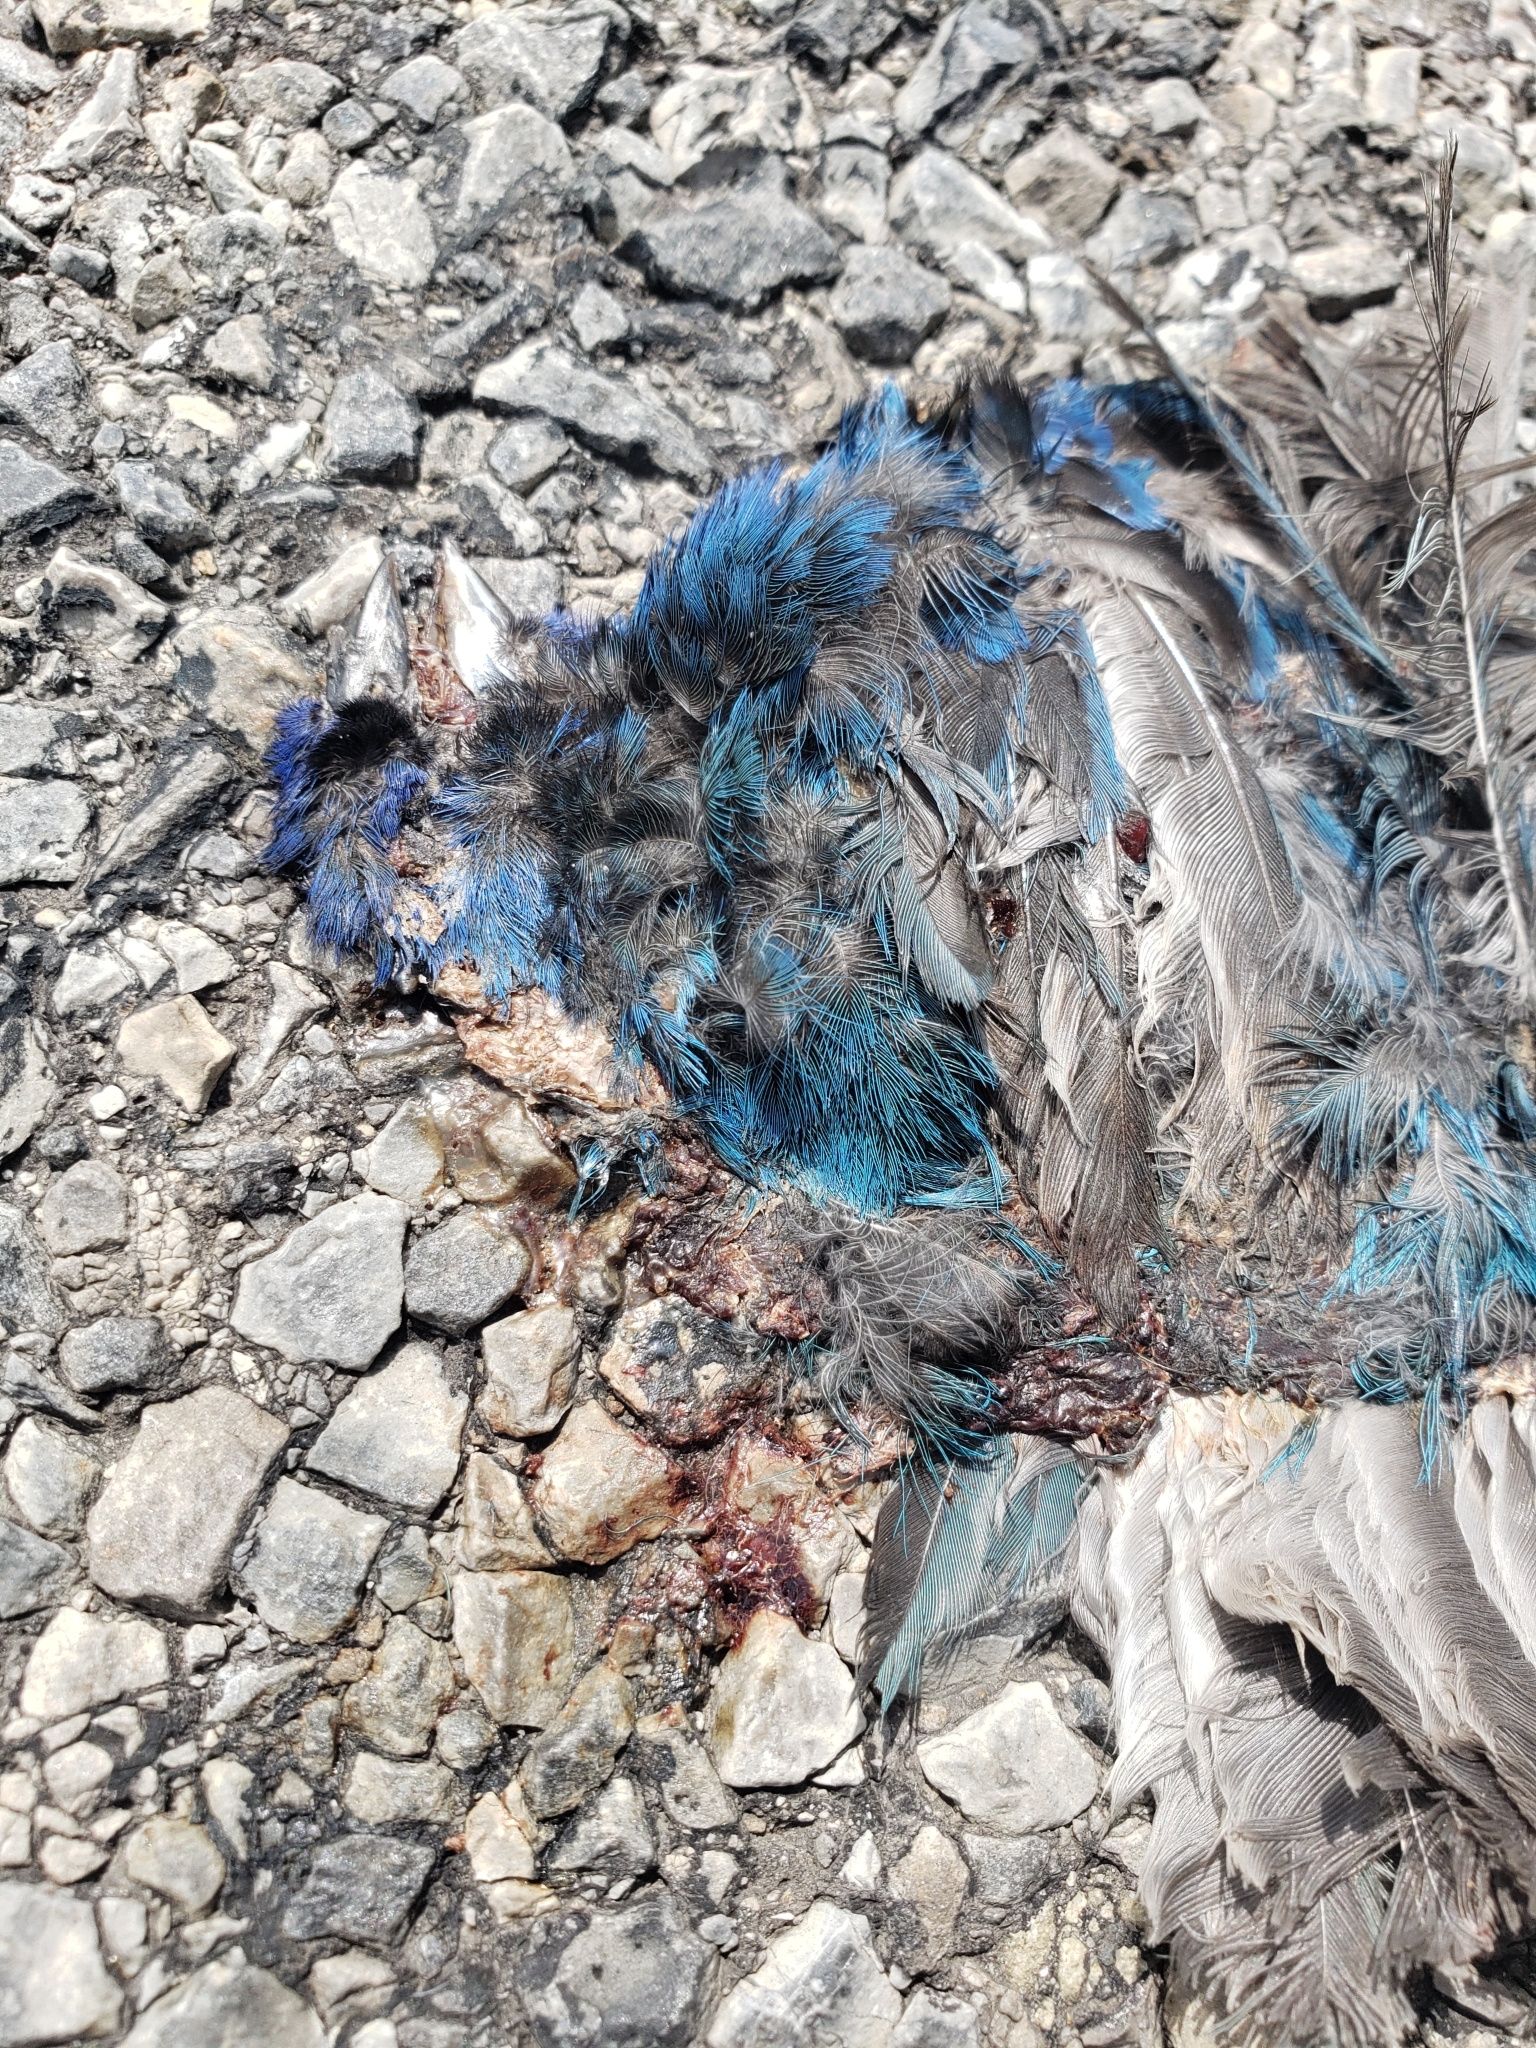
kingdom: Animalia
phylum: Chordata
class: Aves
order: Passeriformes
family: Cardinalidae
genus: Passerina
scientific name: Passerina cyanea
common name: Indigo bunting
